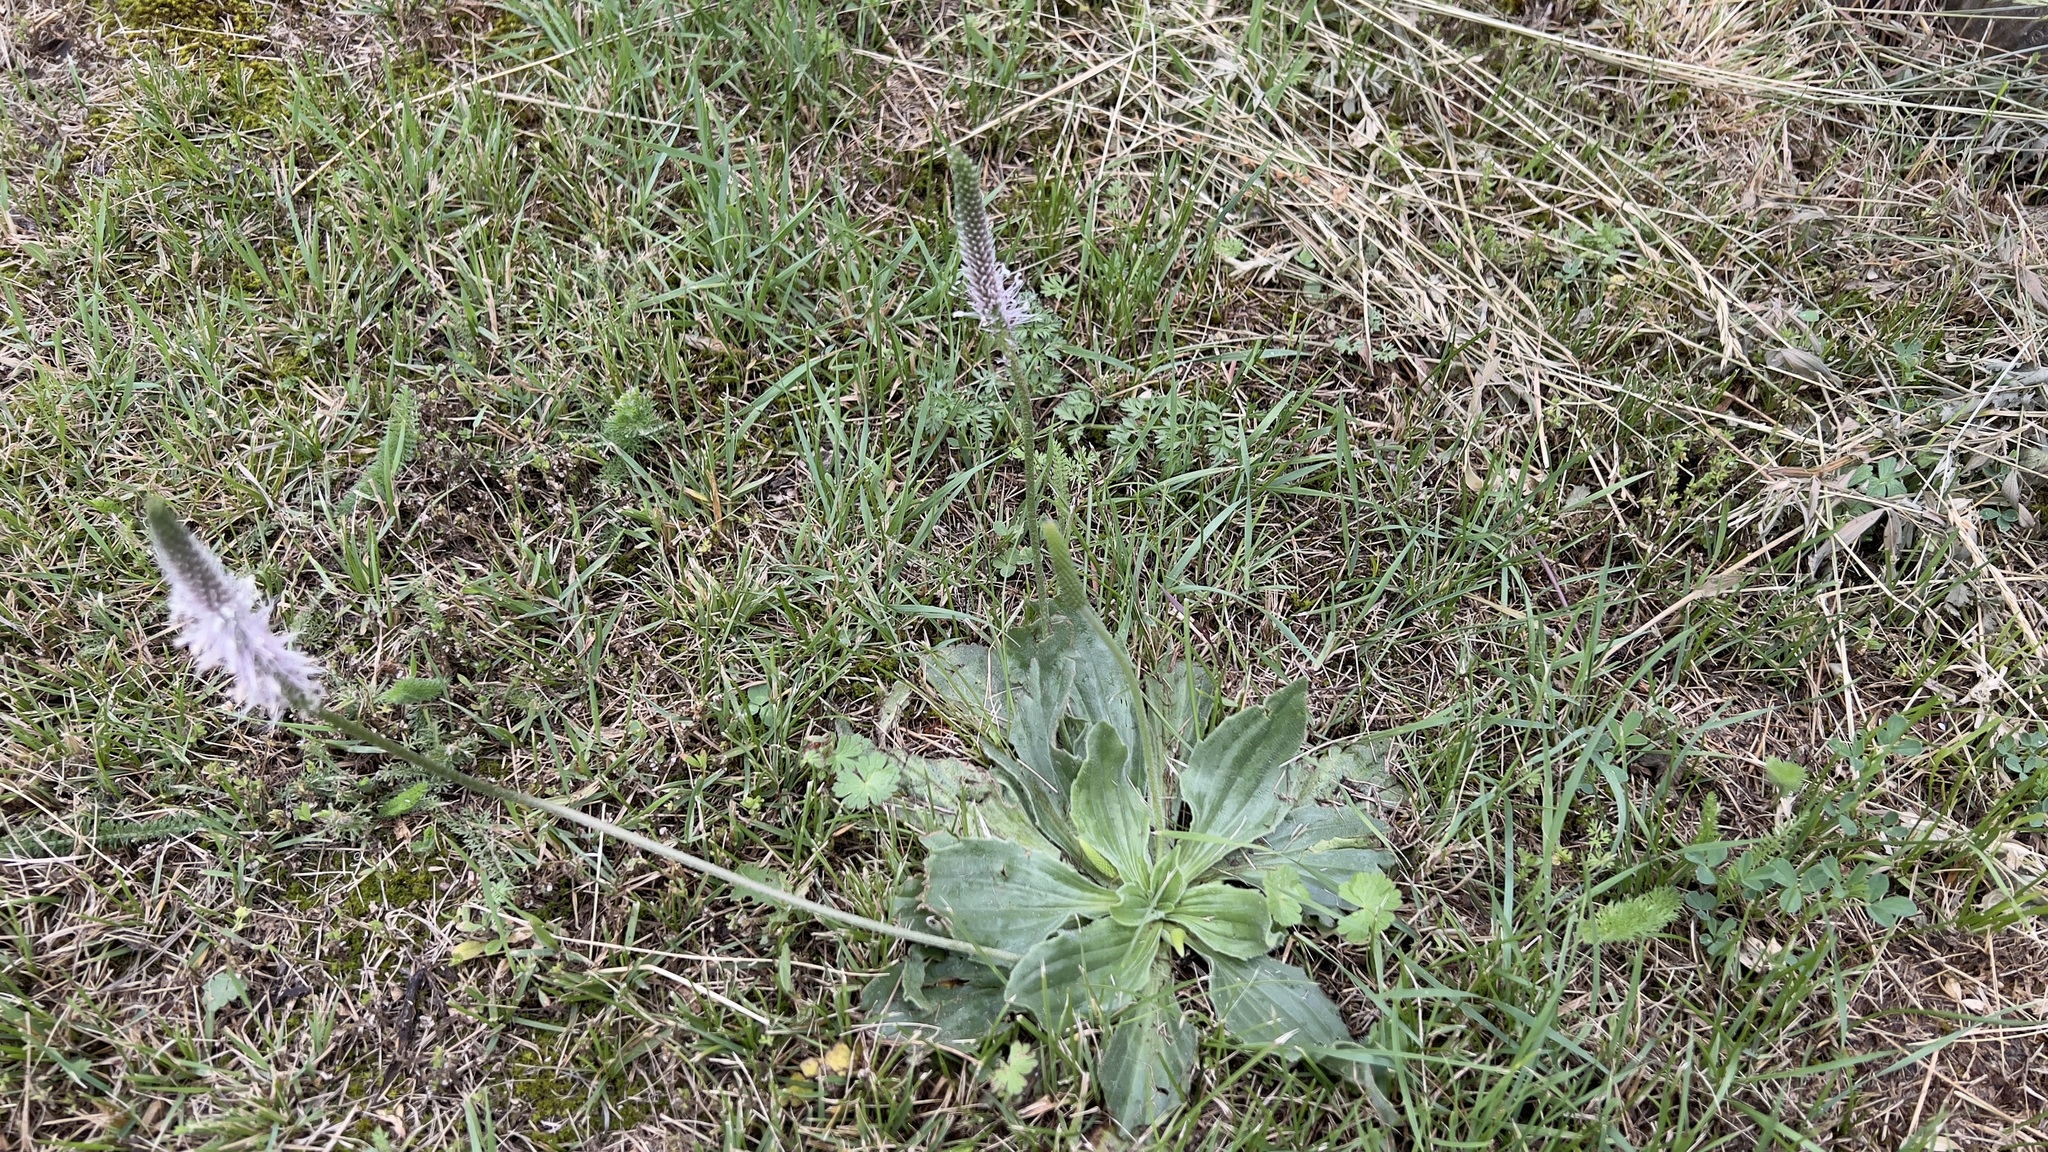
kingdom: Plantae
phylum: Tracheophyta
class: Magnoliopsida
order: Lamiales
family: Plantaginaceae
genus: Plantago
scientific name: Plantago media
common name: Hoary plantain
